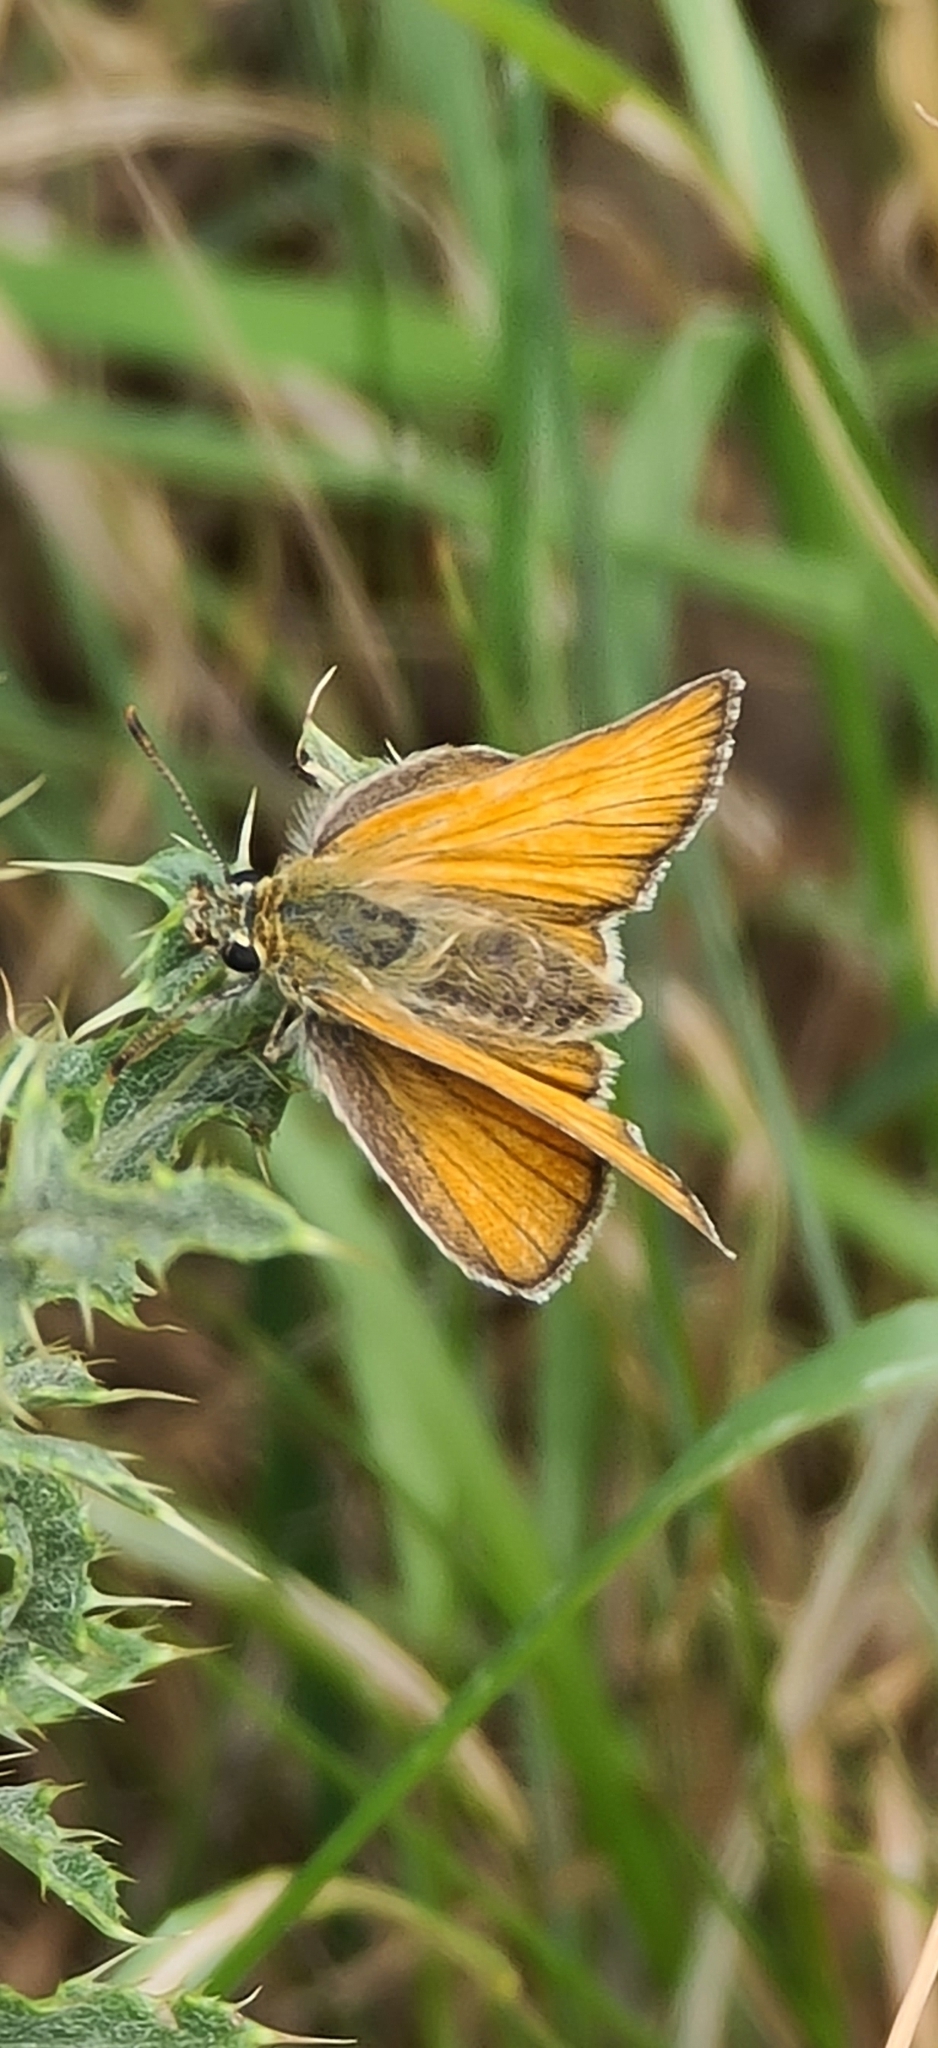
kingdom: Animalia
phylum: Arthropoda
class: Insecta
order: Lepidoptera
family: Hesperiidae
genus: Thymelicus
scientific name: Thymelicus sylvestris
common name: Small skipper
